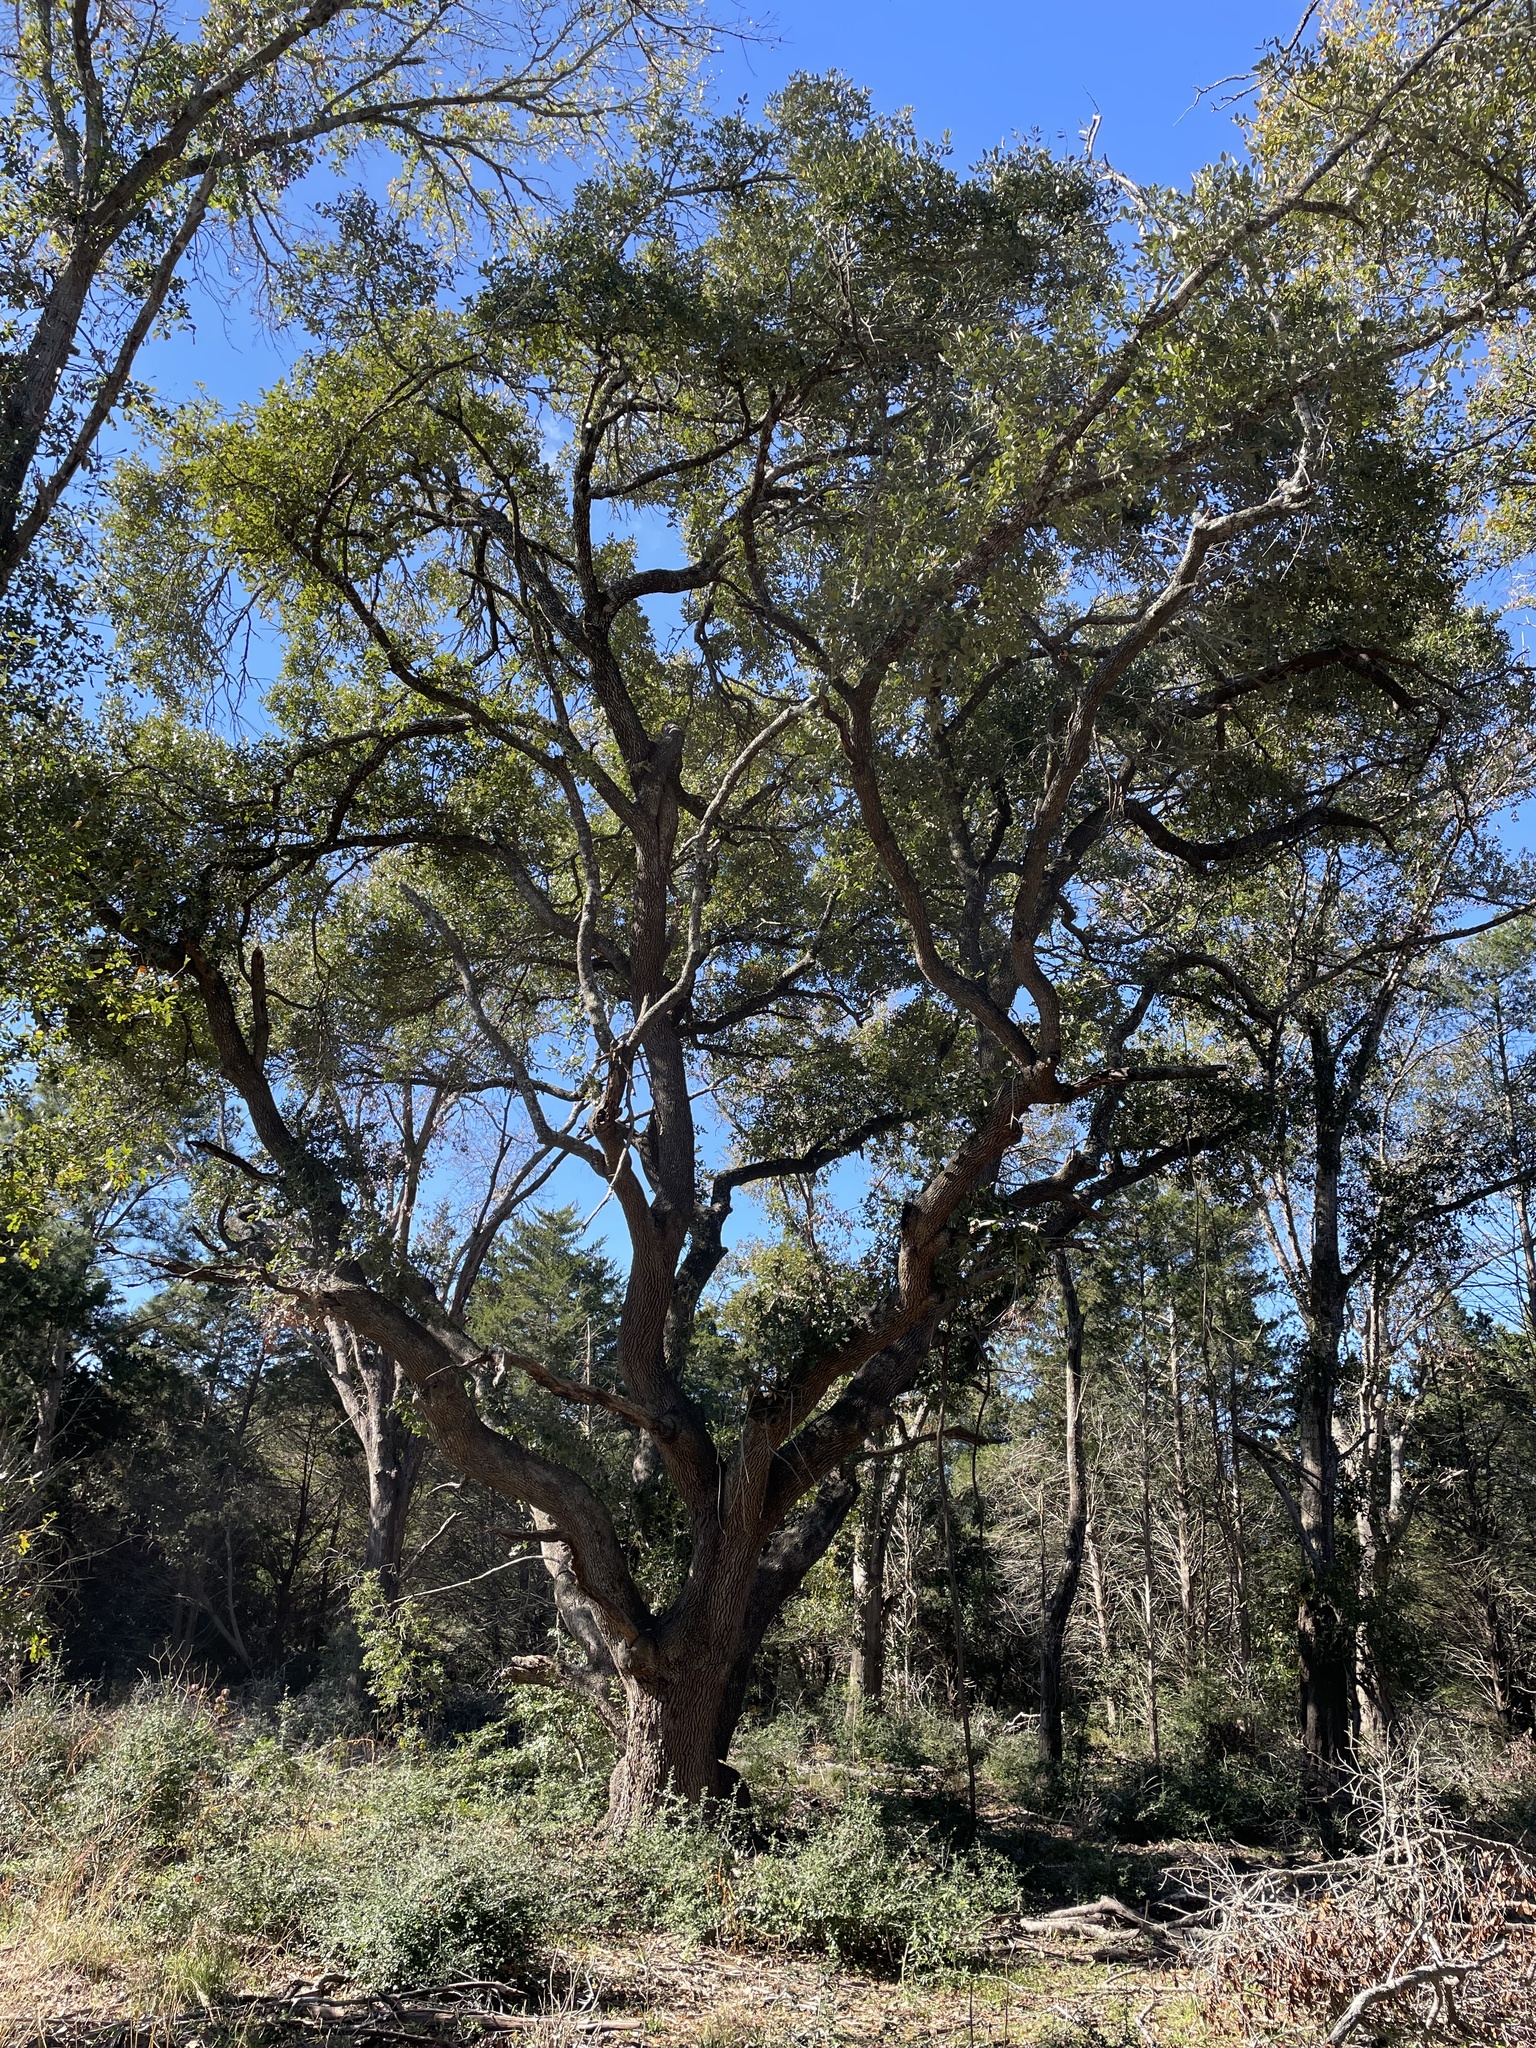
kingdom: Plantae
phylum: Tracheophyta
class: Magnoliopsida
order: Fagales
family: Fagaceae
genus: Quercus
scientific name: Quercus fusiformis
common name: Texas live oak
